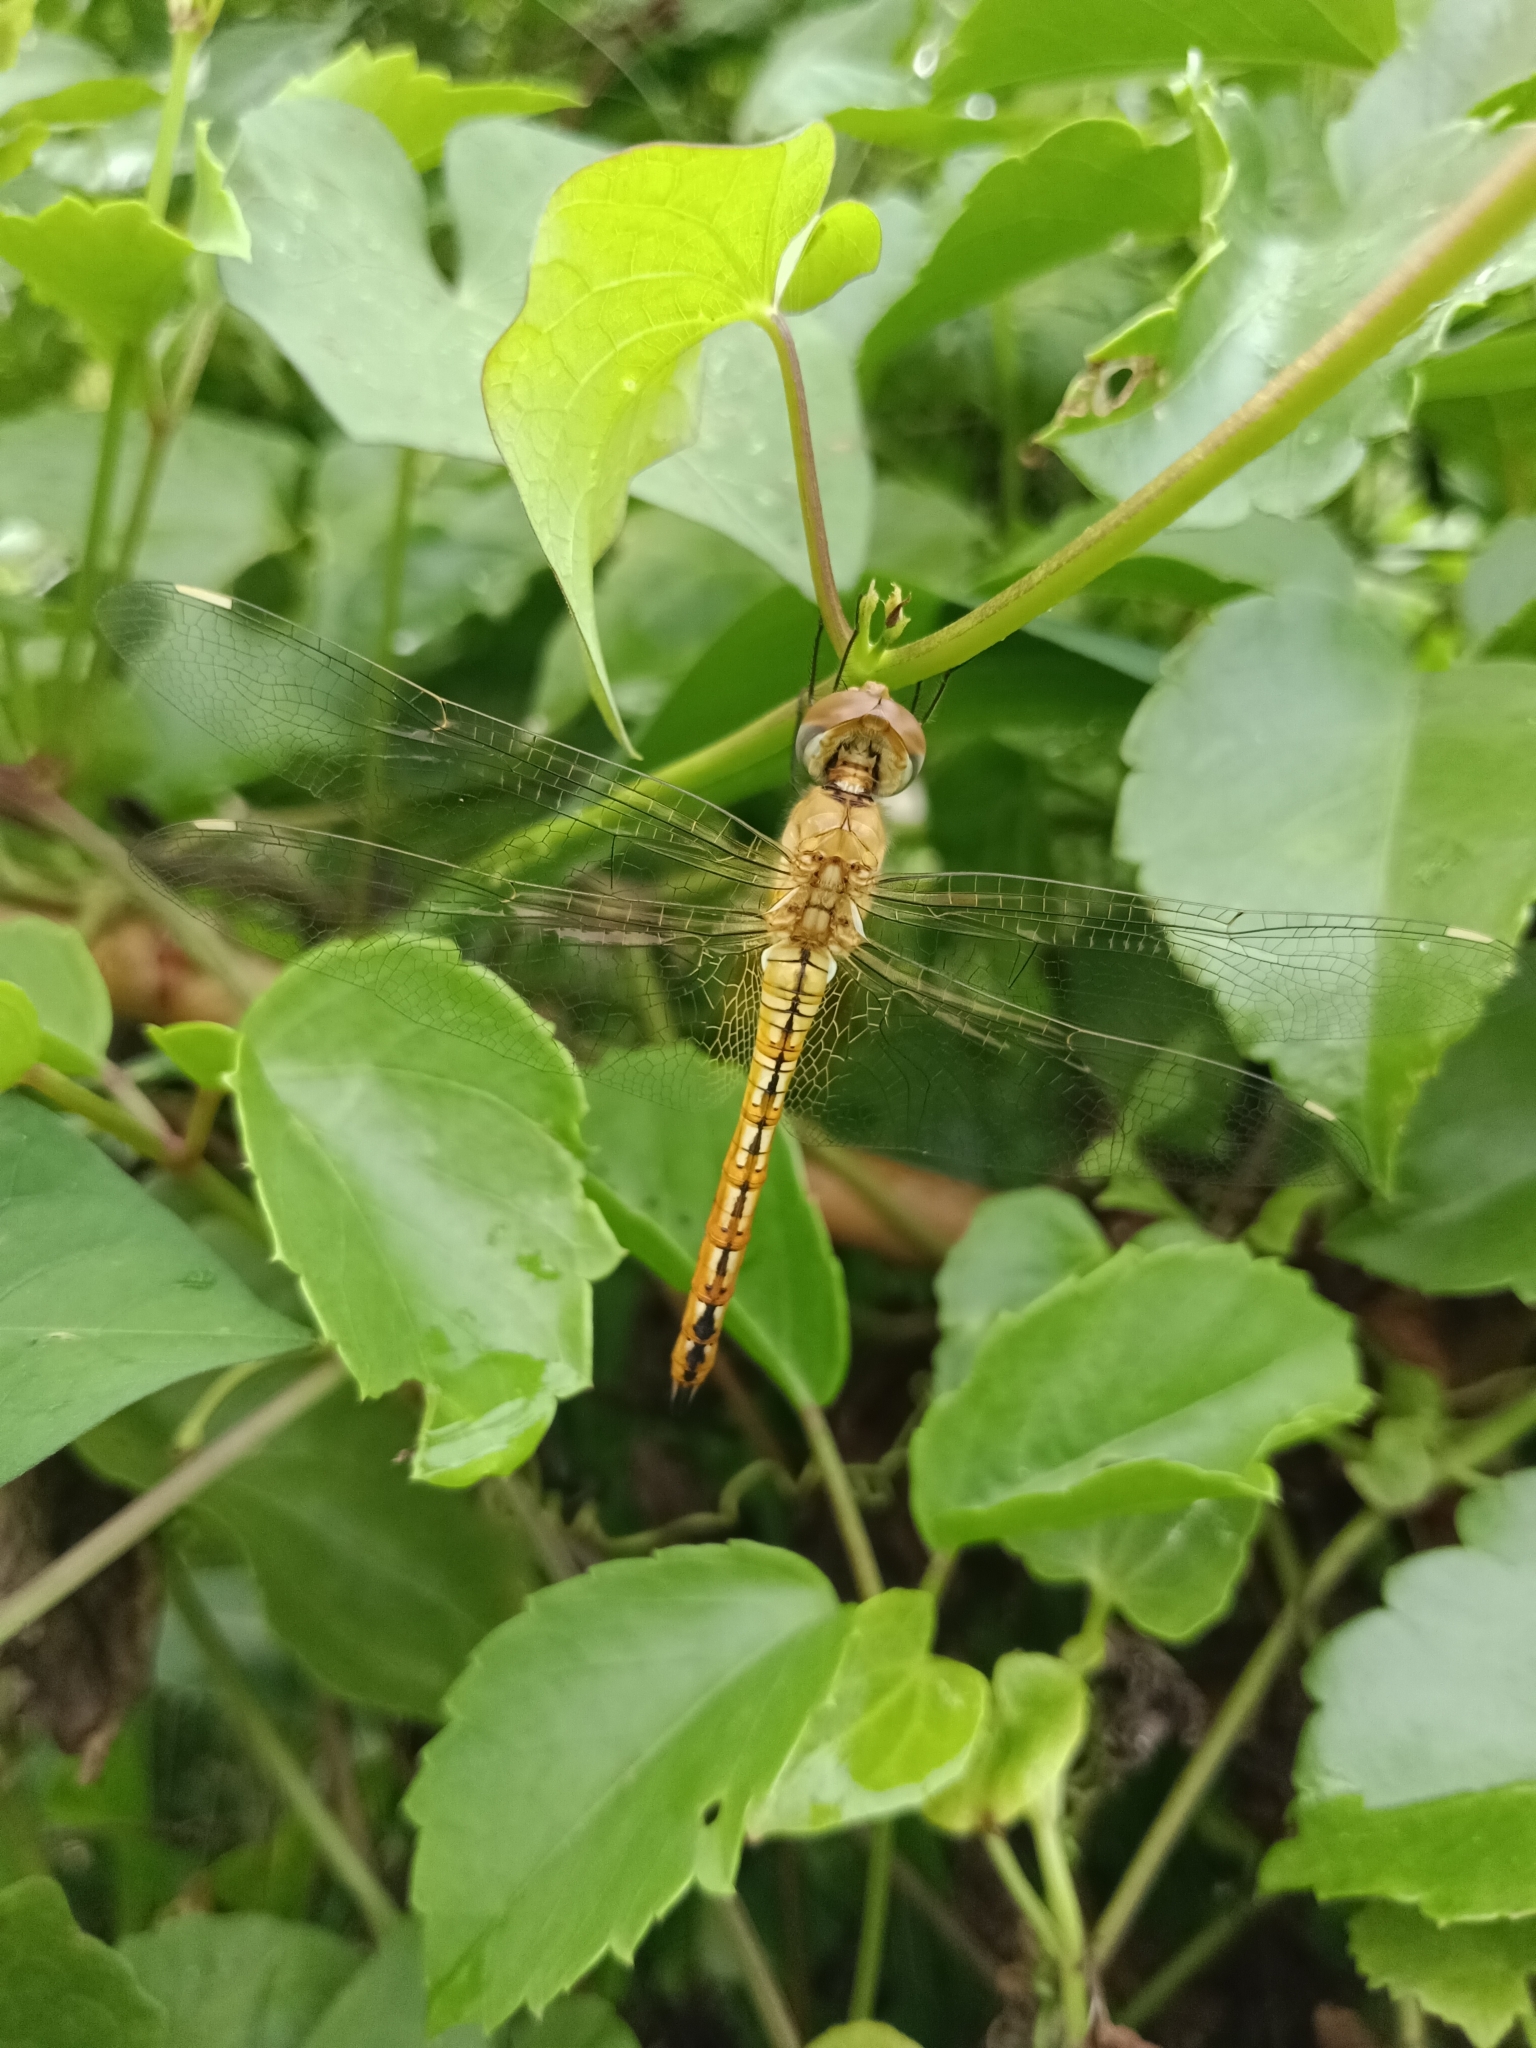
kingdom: Animalia
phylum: Arthropoda
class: Insecta
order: Odonata
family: Libellulidae
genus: Pantala
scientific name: Pantala flavescens
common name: Wandering glider
